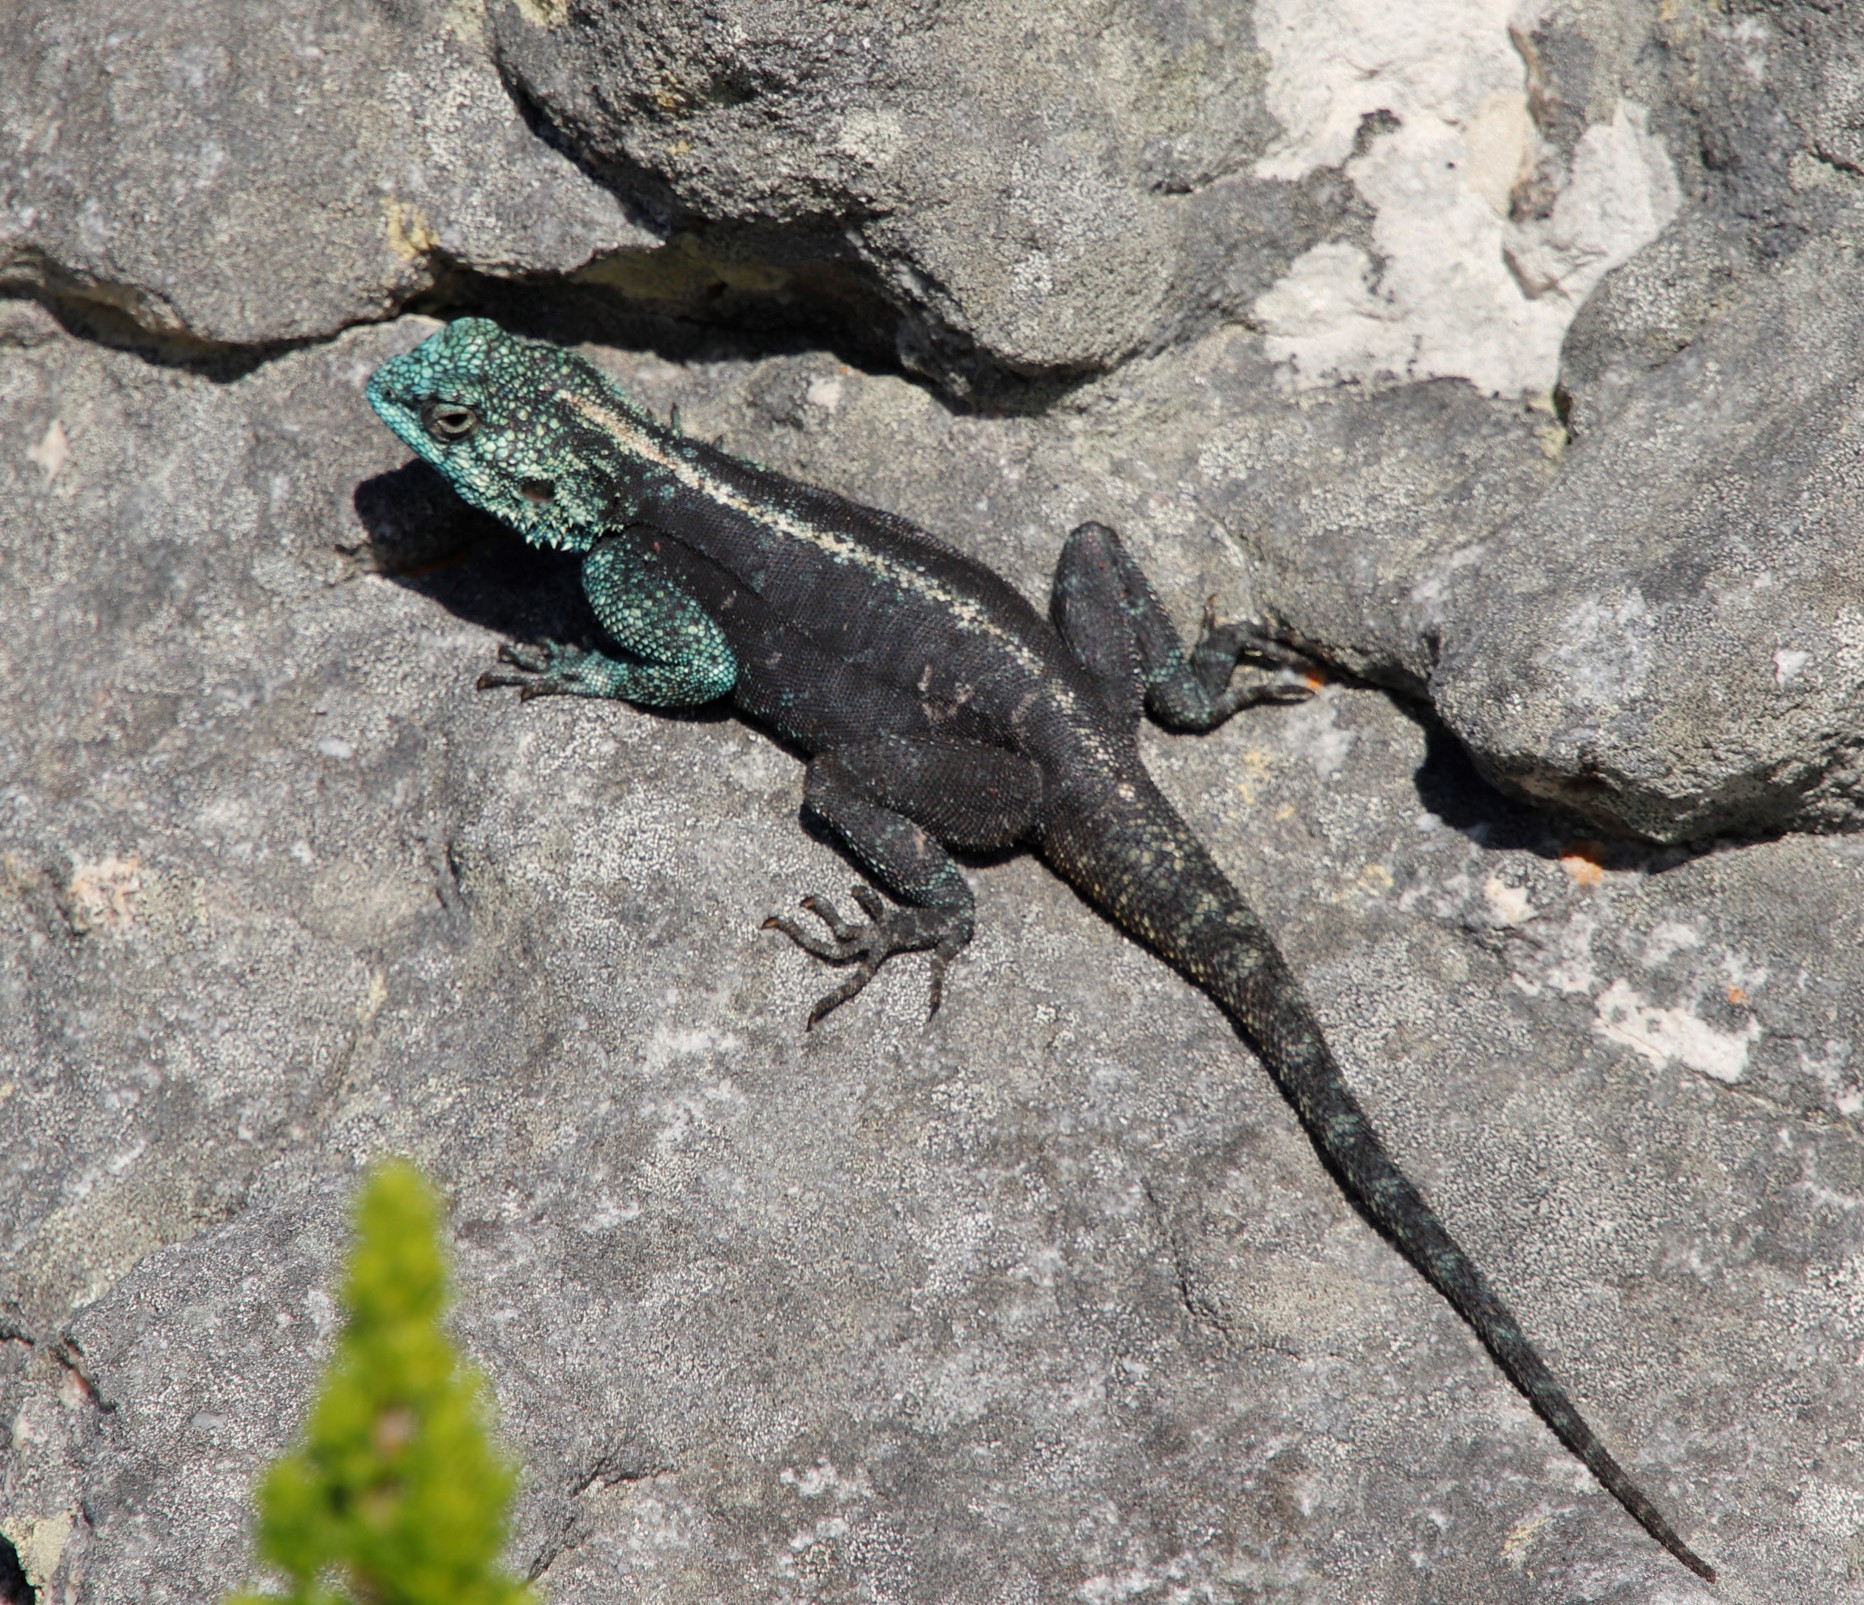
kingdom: Animalia
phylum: Chordata
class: Squamata
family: Agamidae
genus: Agama
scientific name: Agama atra
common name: Southern african rock agama
